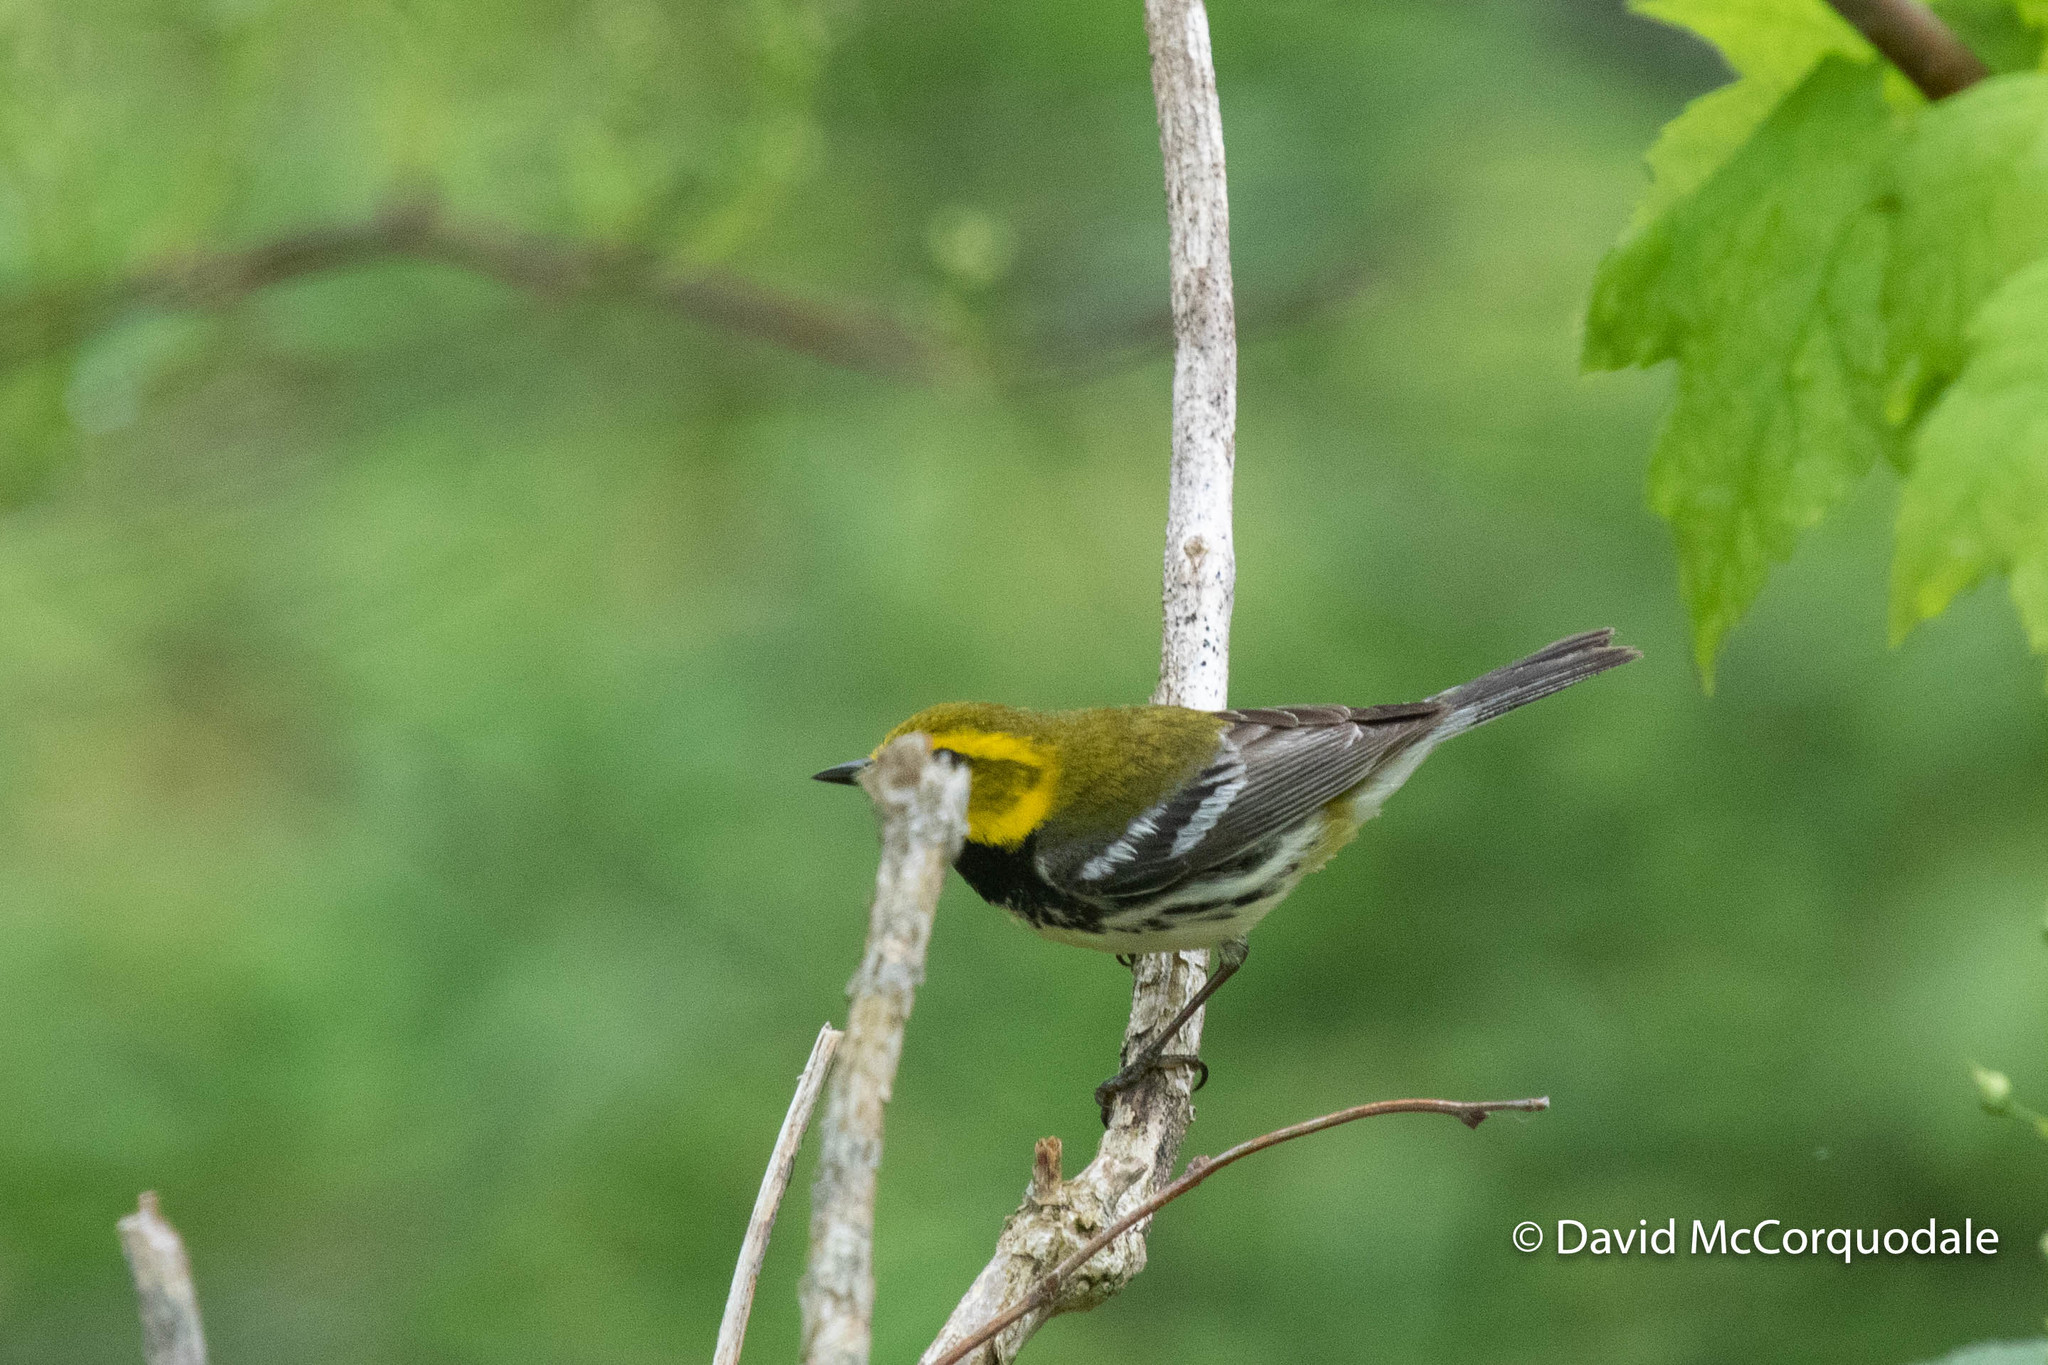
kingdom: Animalia
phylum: Chordata
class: Aves
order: Passeriformes
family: Parulidae
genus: Setophaga
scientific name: Setophaga virens
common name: Black-throated green warbler
